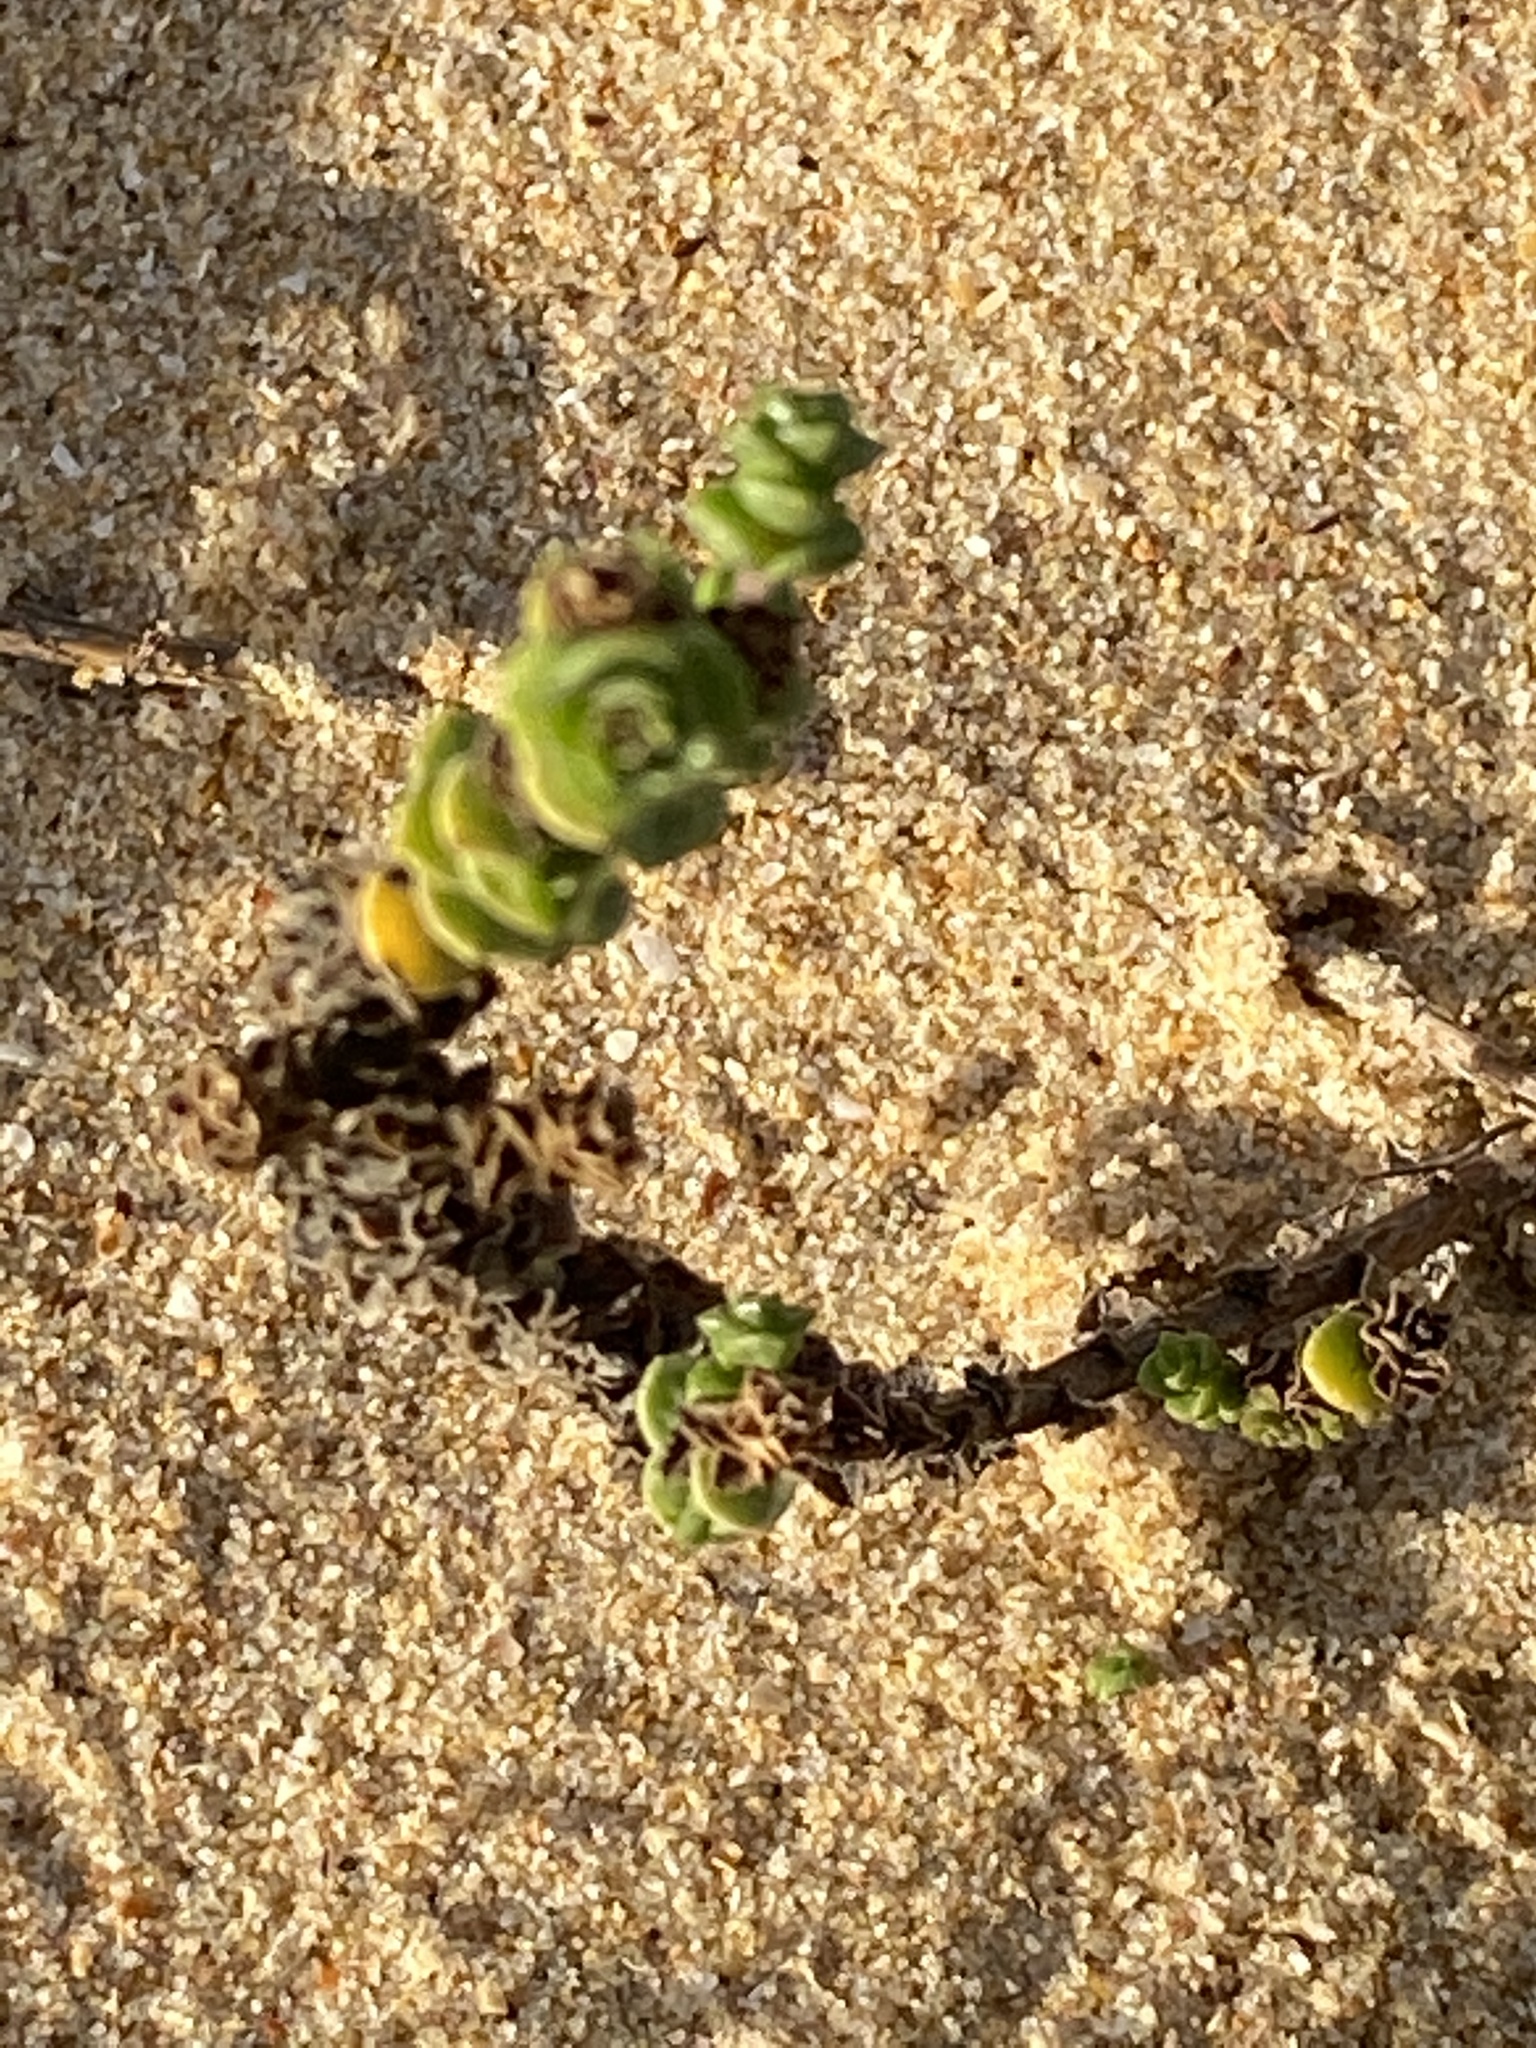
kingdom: Plantae
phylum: Tracheophyta
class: Magnoliopsida
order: Lamiales
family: Scrophulariaceae
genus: Hebenstretia
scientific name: Hebenstretia cordata
